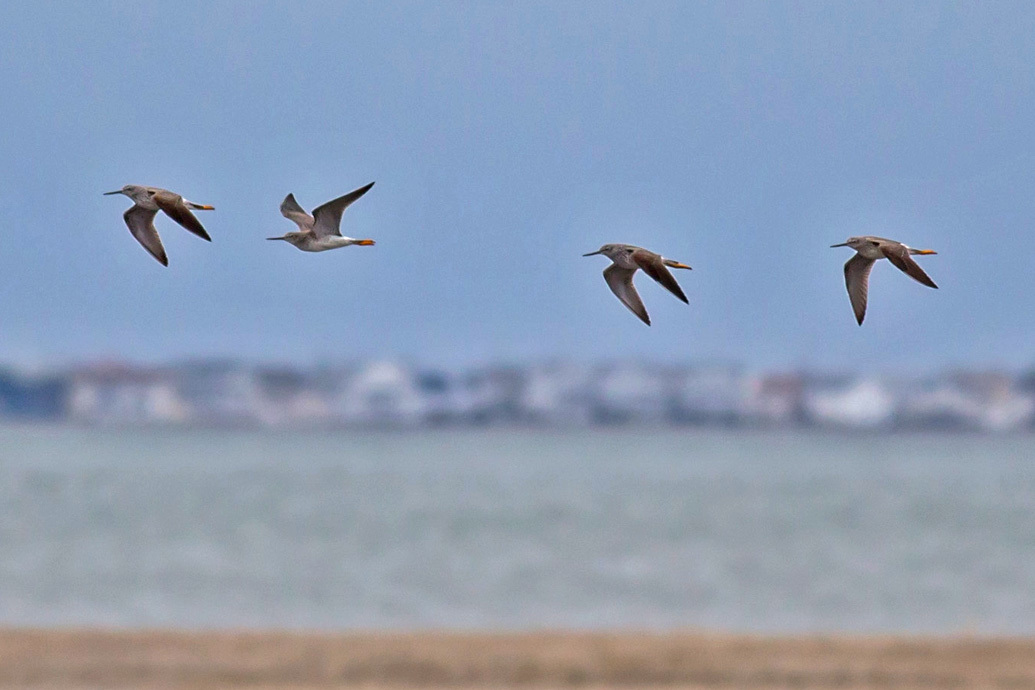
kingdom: Animalia
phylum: Chordata
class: Aves
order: Charadriiformes
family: Scolopacidae
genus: Tringa
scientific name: Tringa melanoleuca
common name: Greater yellowlegs
